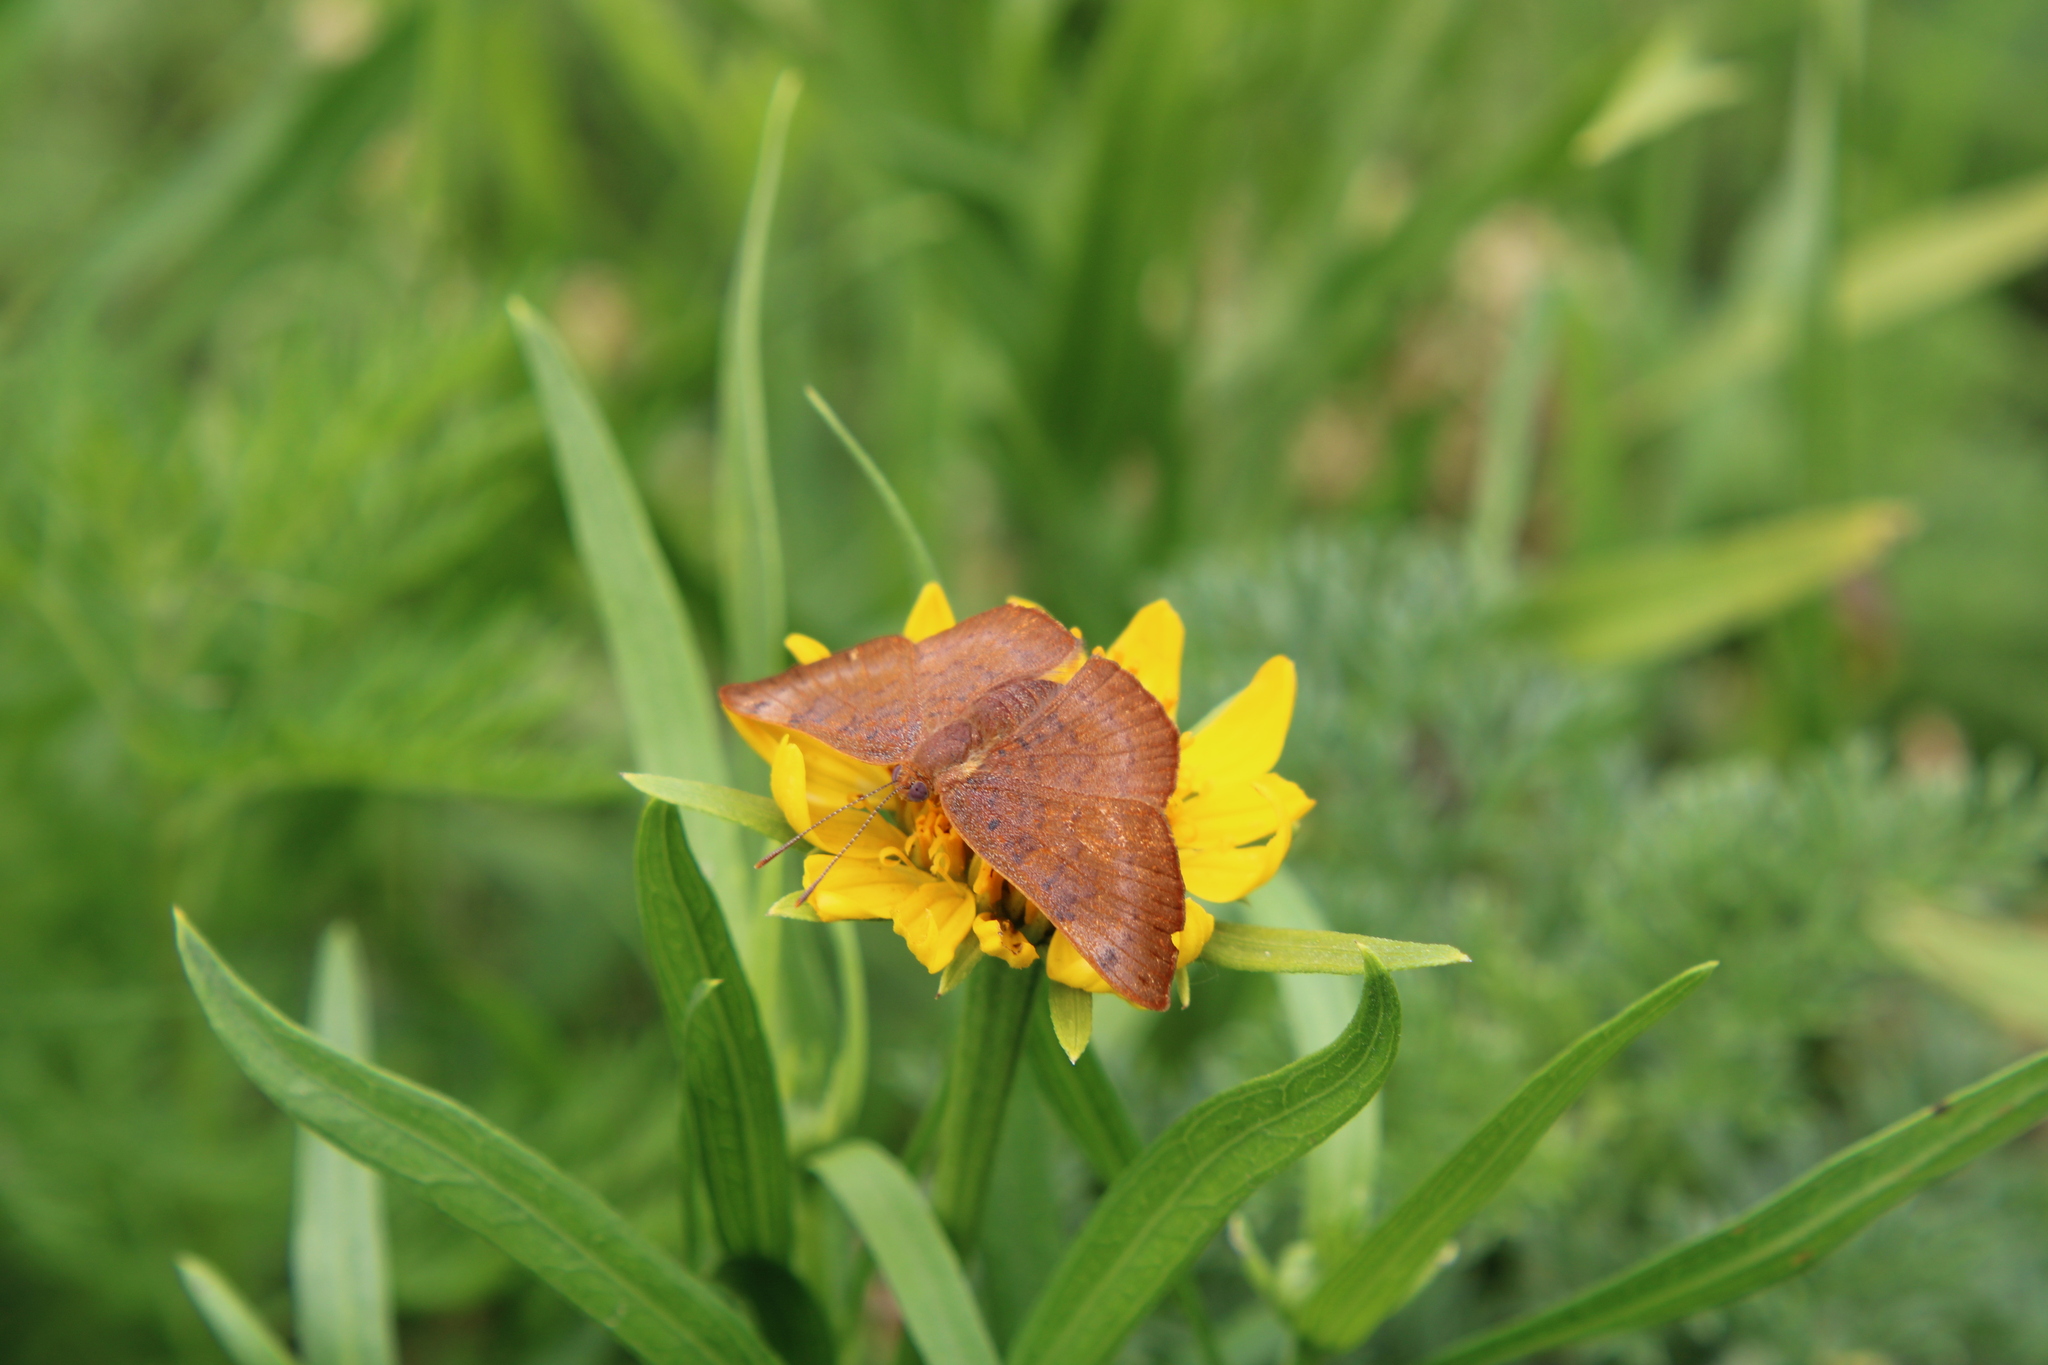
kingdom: Animalia
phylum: Arthropoda
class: Insecta
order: Lepidoptera
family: Lycaenidae
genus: Emesis
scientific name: Emesis russula
